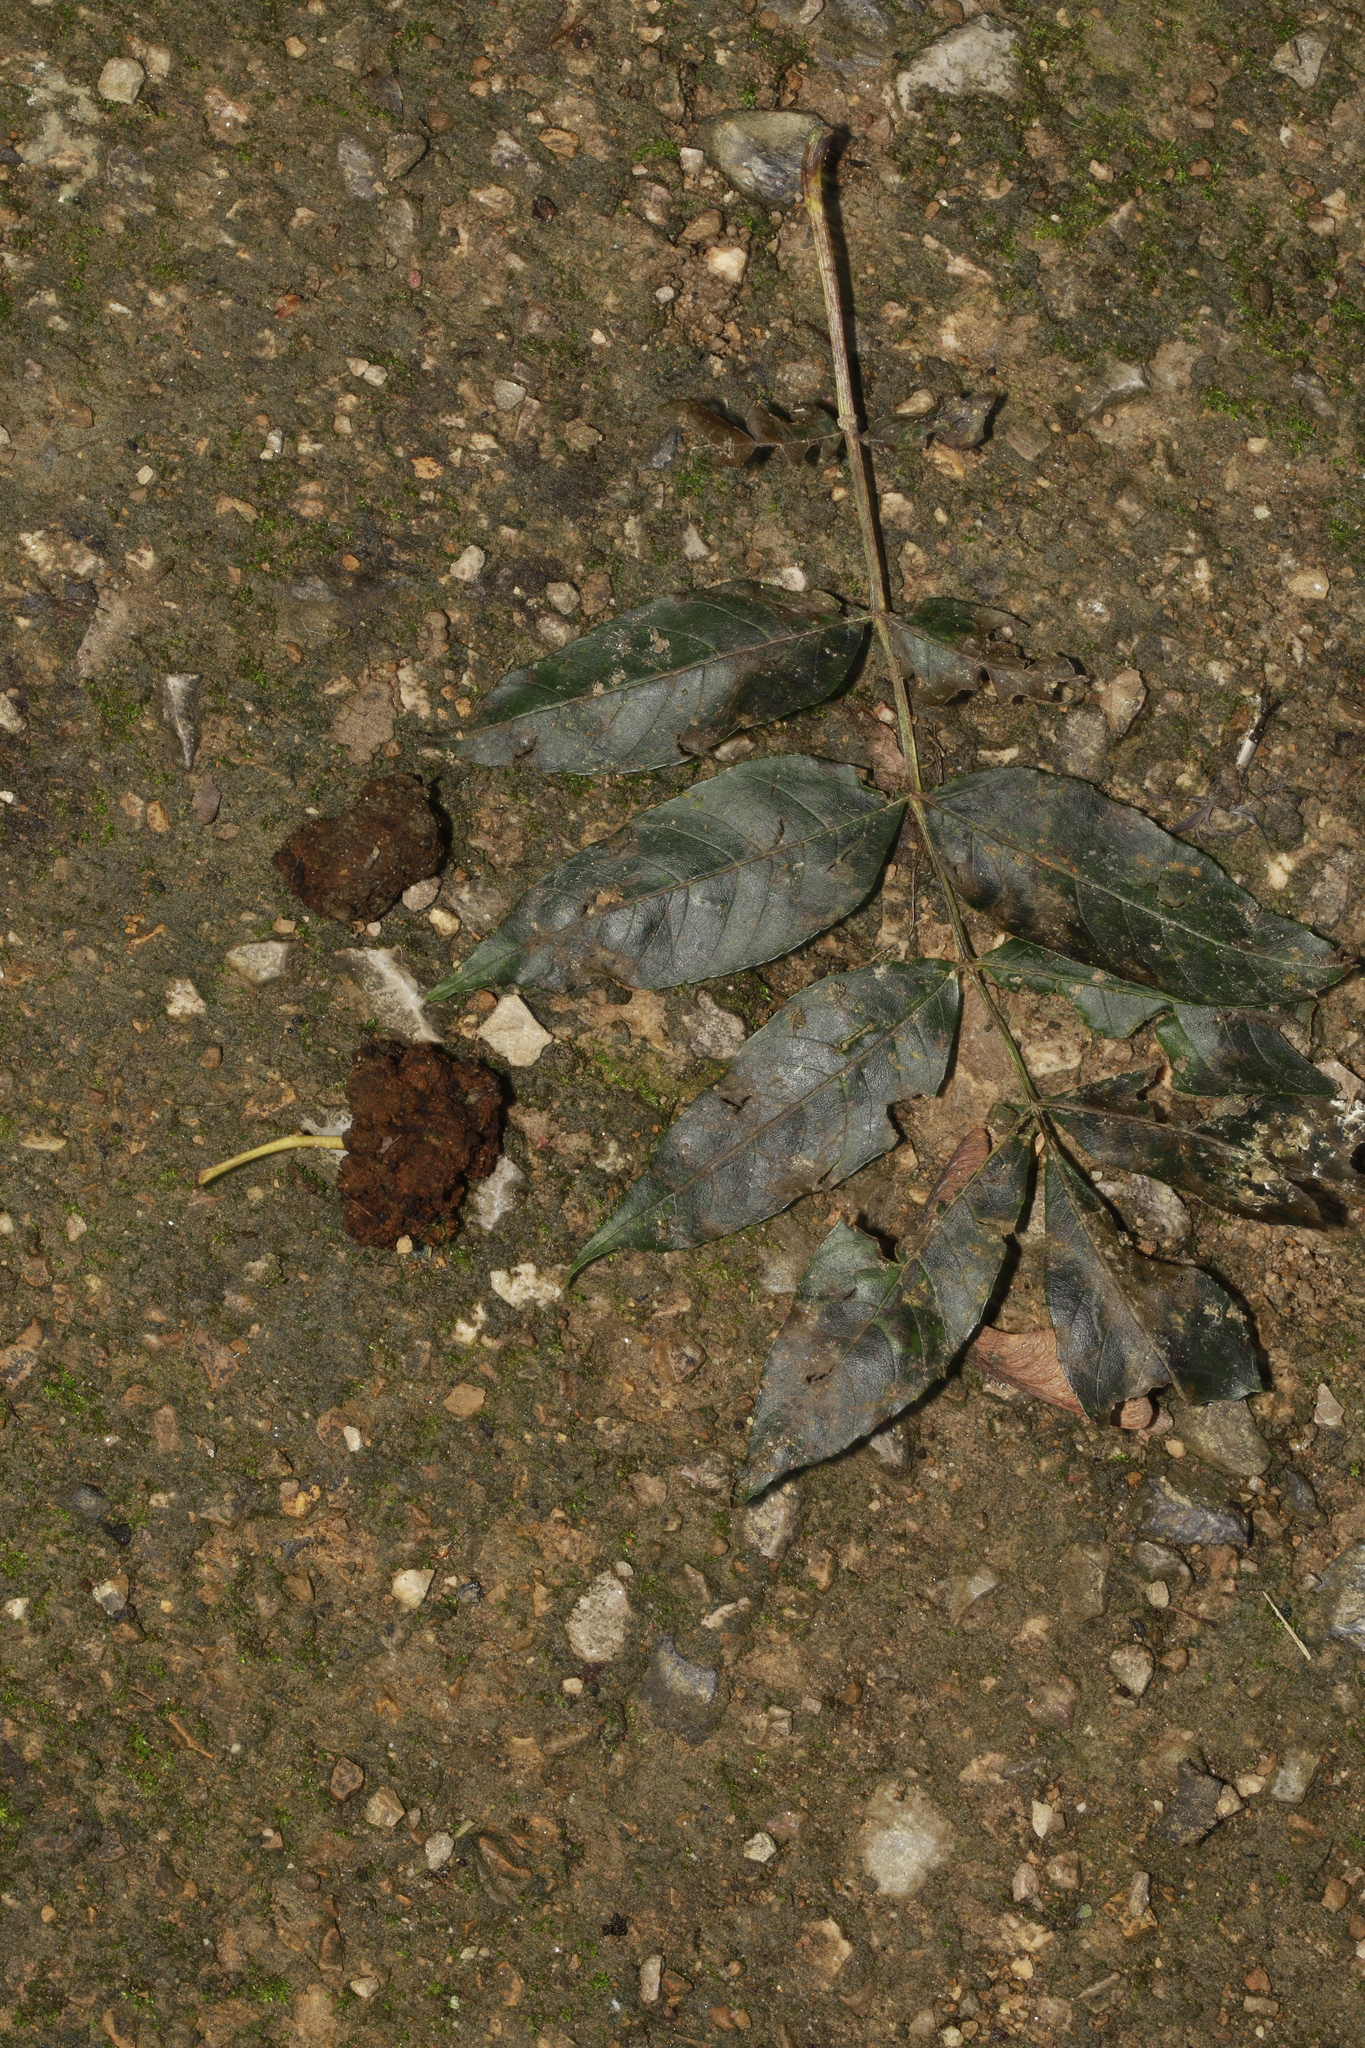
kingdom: Animalia
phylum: Arthropoda
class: Arachnida
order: Trombidiformes
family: Eriophyidae
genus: Aceria
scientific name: Aceria fraxinivora
